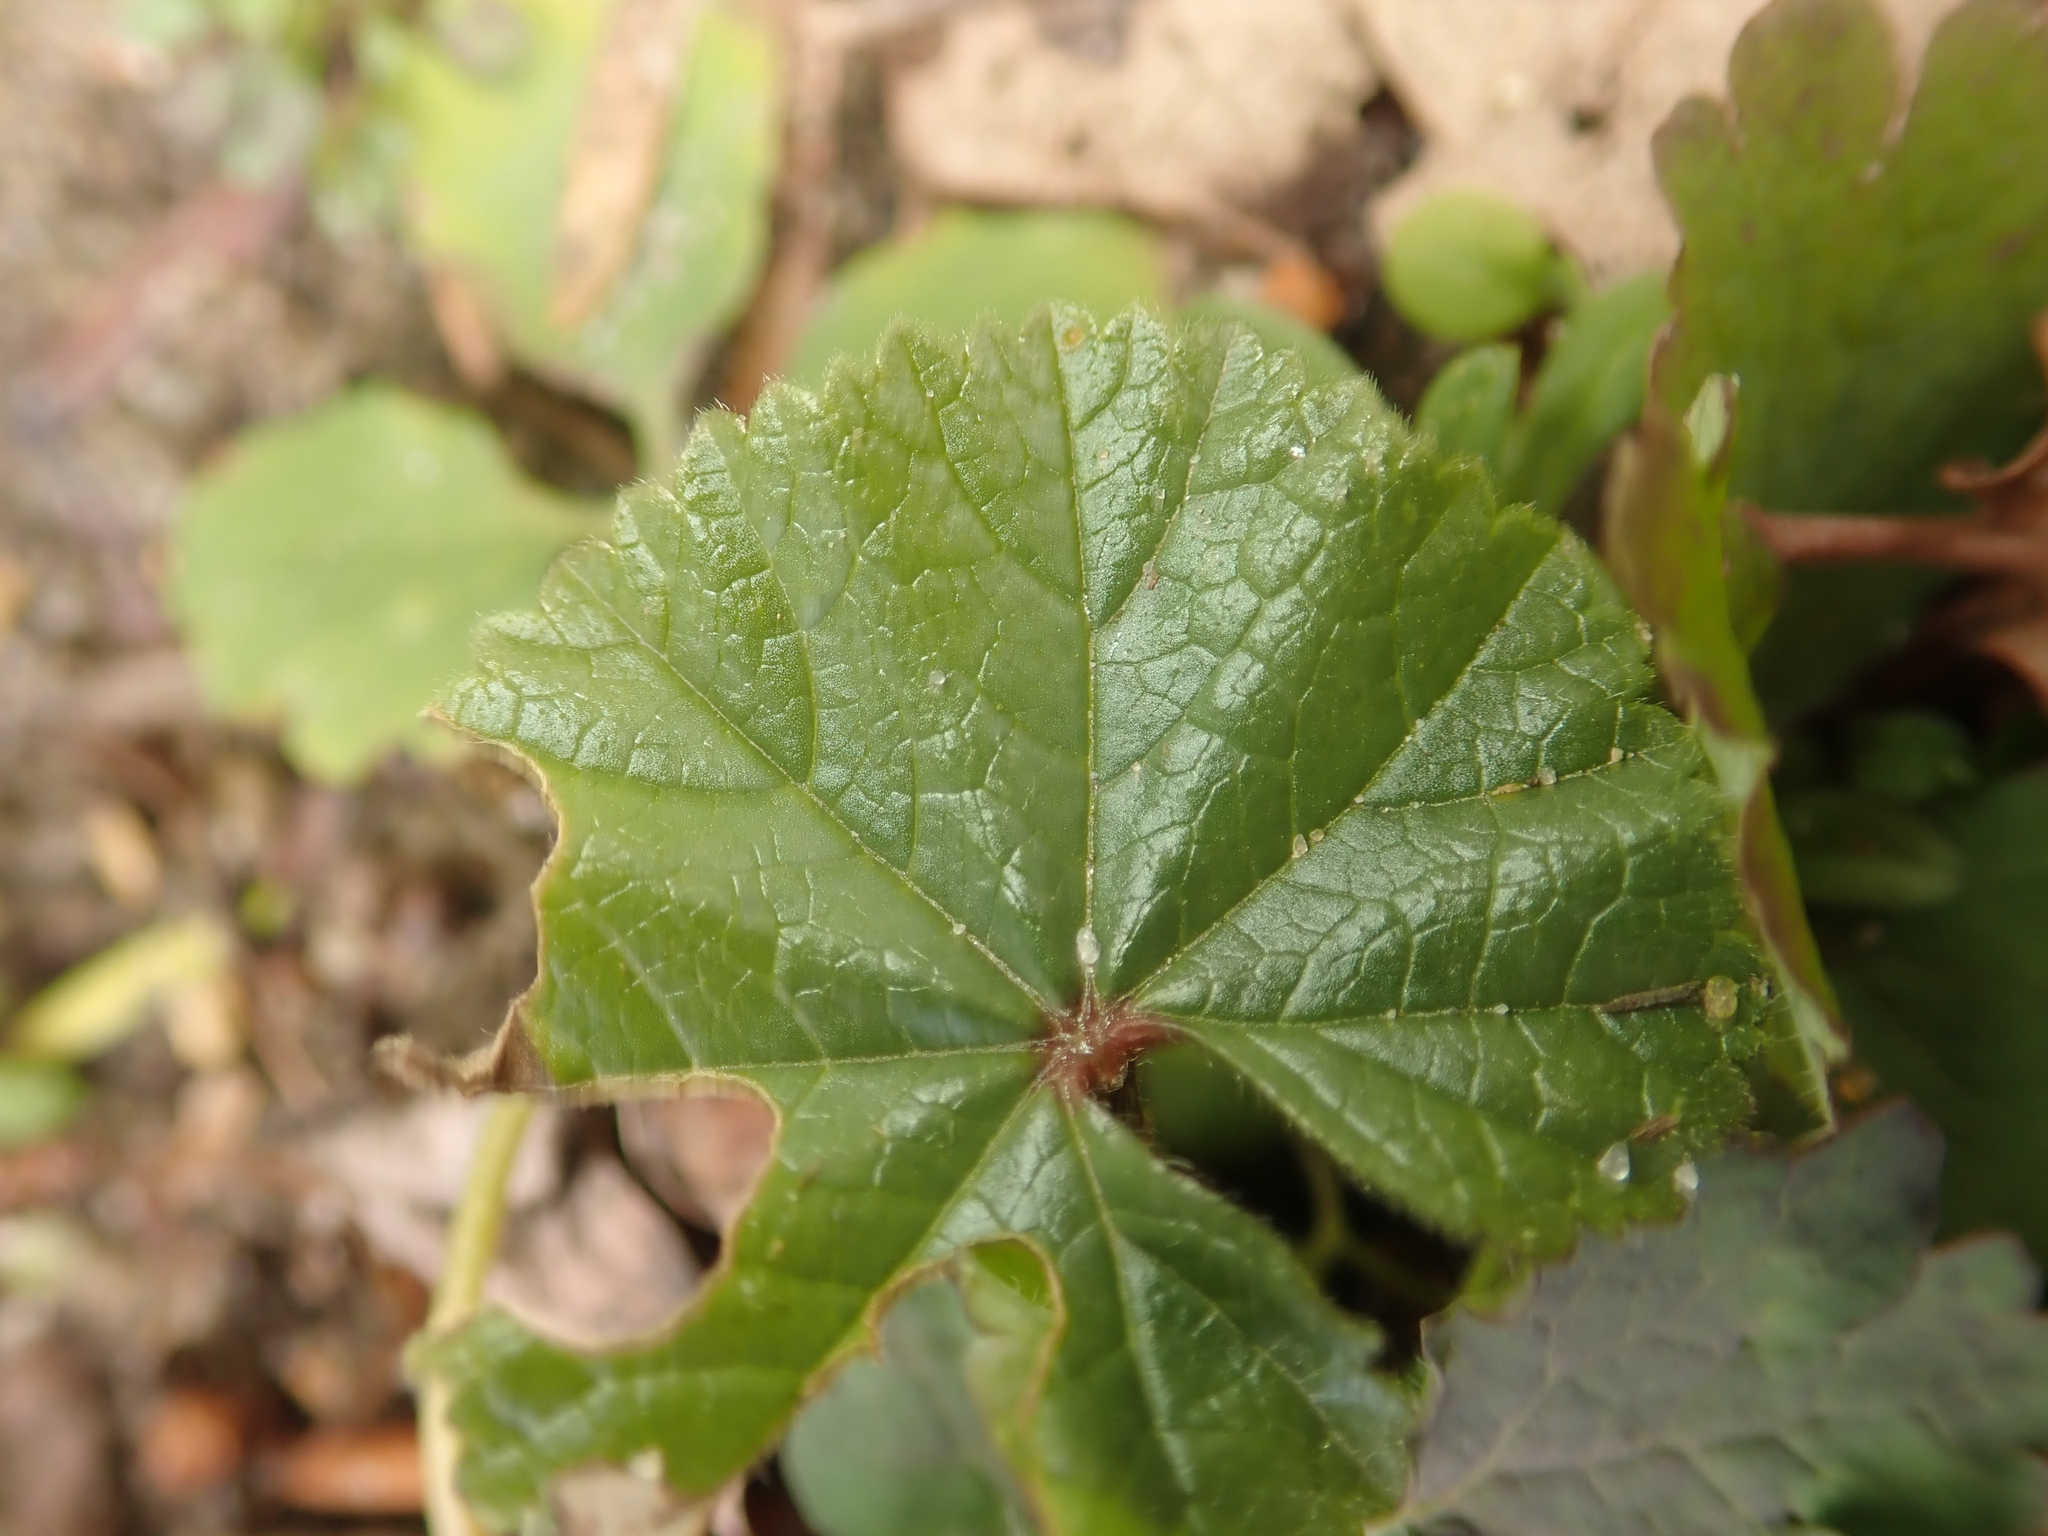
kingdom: Plantae
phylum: Tracheophyta
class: Magnoliopsida
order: Malvales
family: Malvaceae
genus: Malva
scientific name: Malva sylvestris
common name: Common mallow
